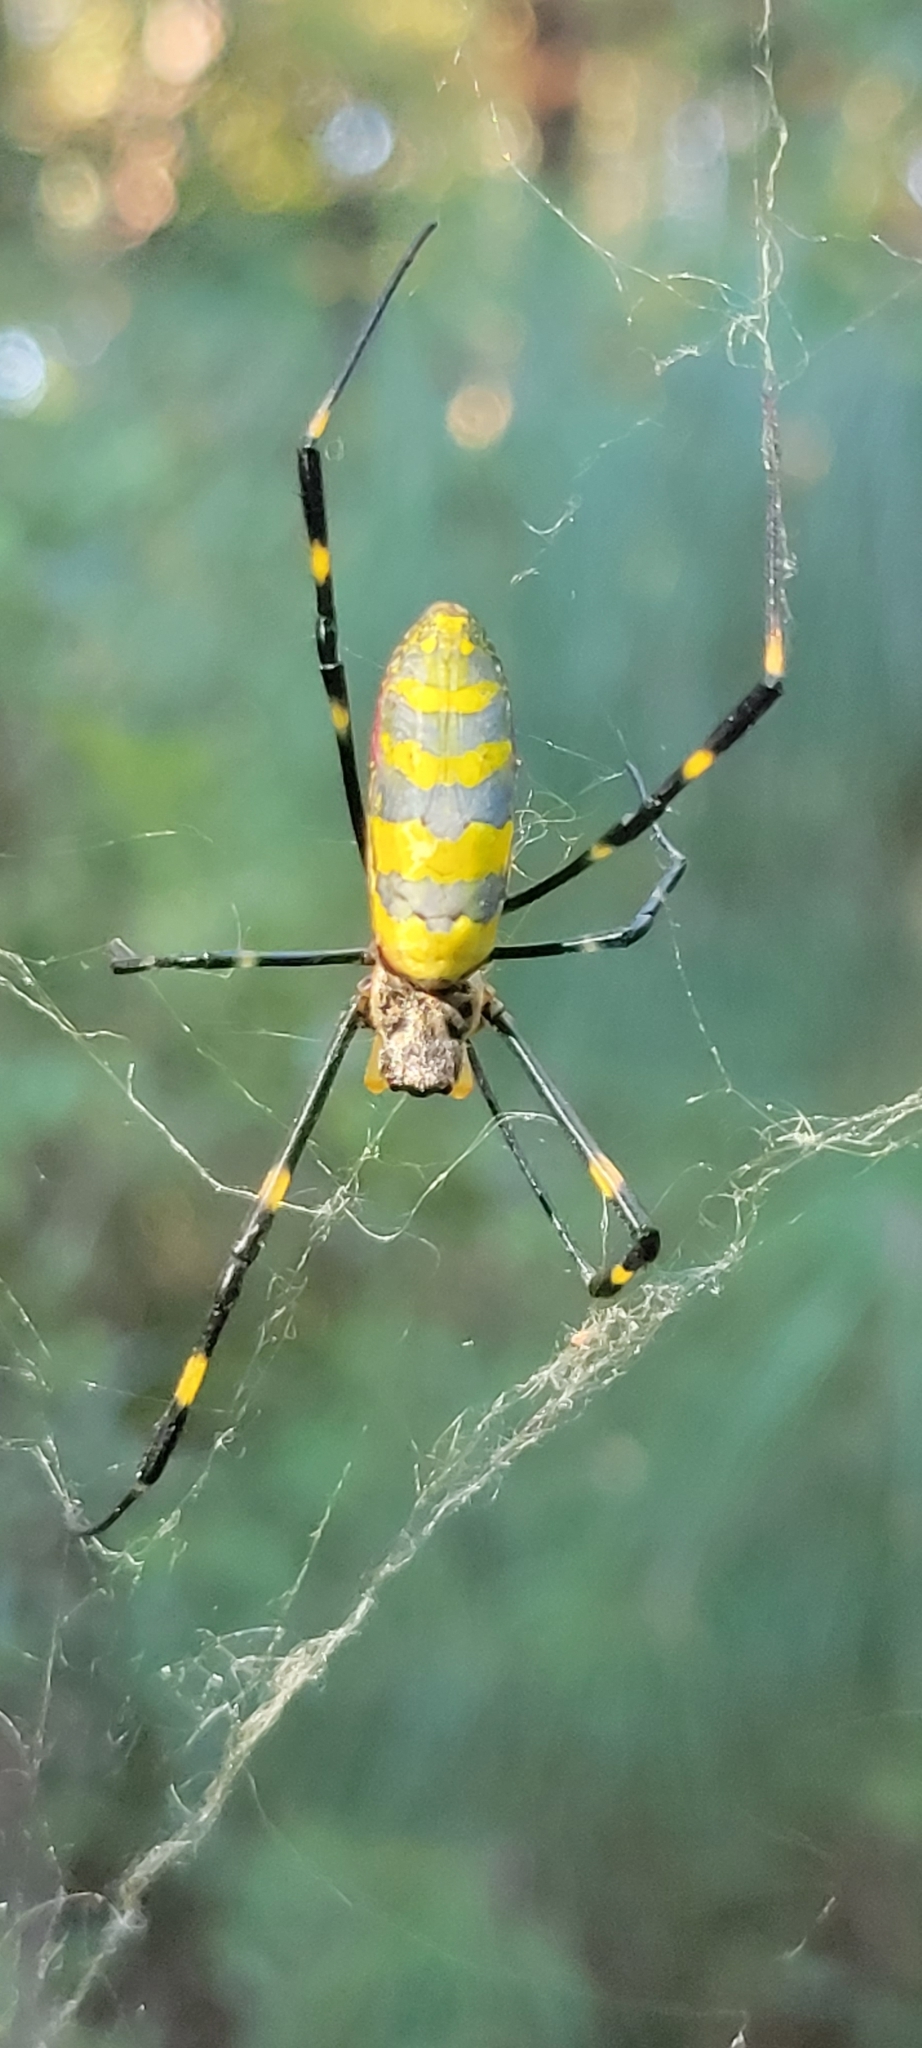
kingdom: Animalia
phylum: Arthropoda
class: Arachnida
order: Araneae
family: Araneidae
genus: Trichonephila
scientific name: Trichonephila clavata
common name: Jorō spider
